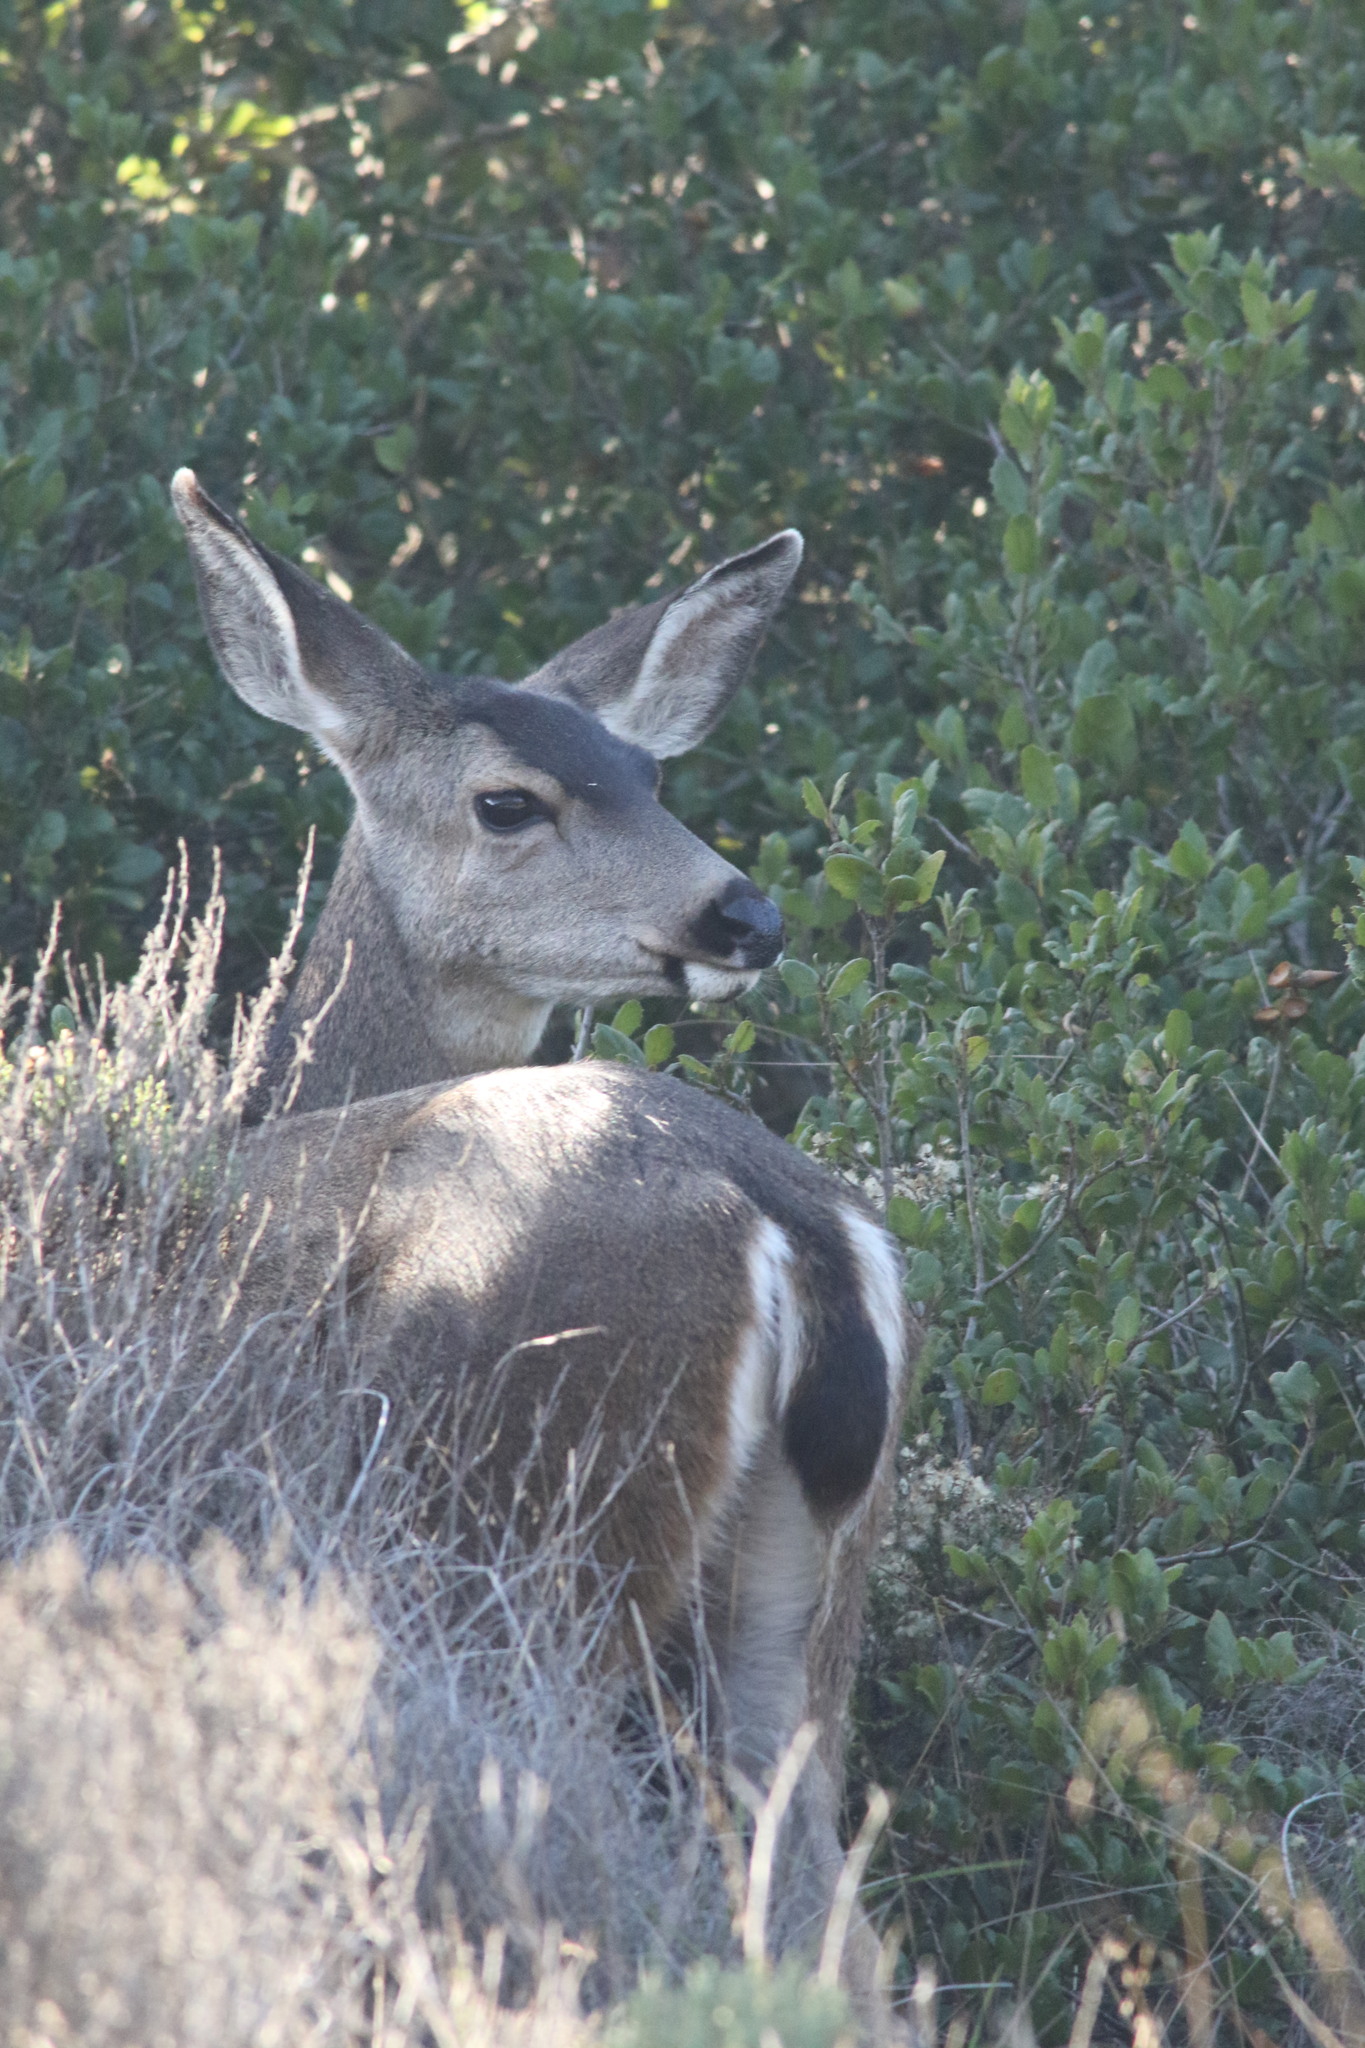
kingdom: Animalia
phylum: Chordata
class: Mammalia
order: Artiodactyla
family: Cervidae
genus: Odocoileus
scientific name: Odocoileus hemionus
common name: Mule deer
